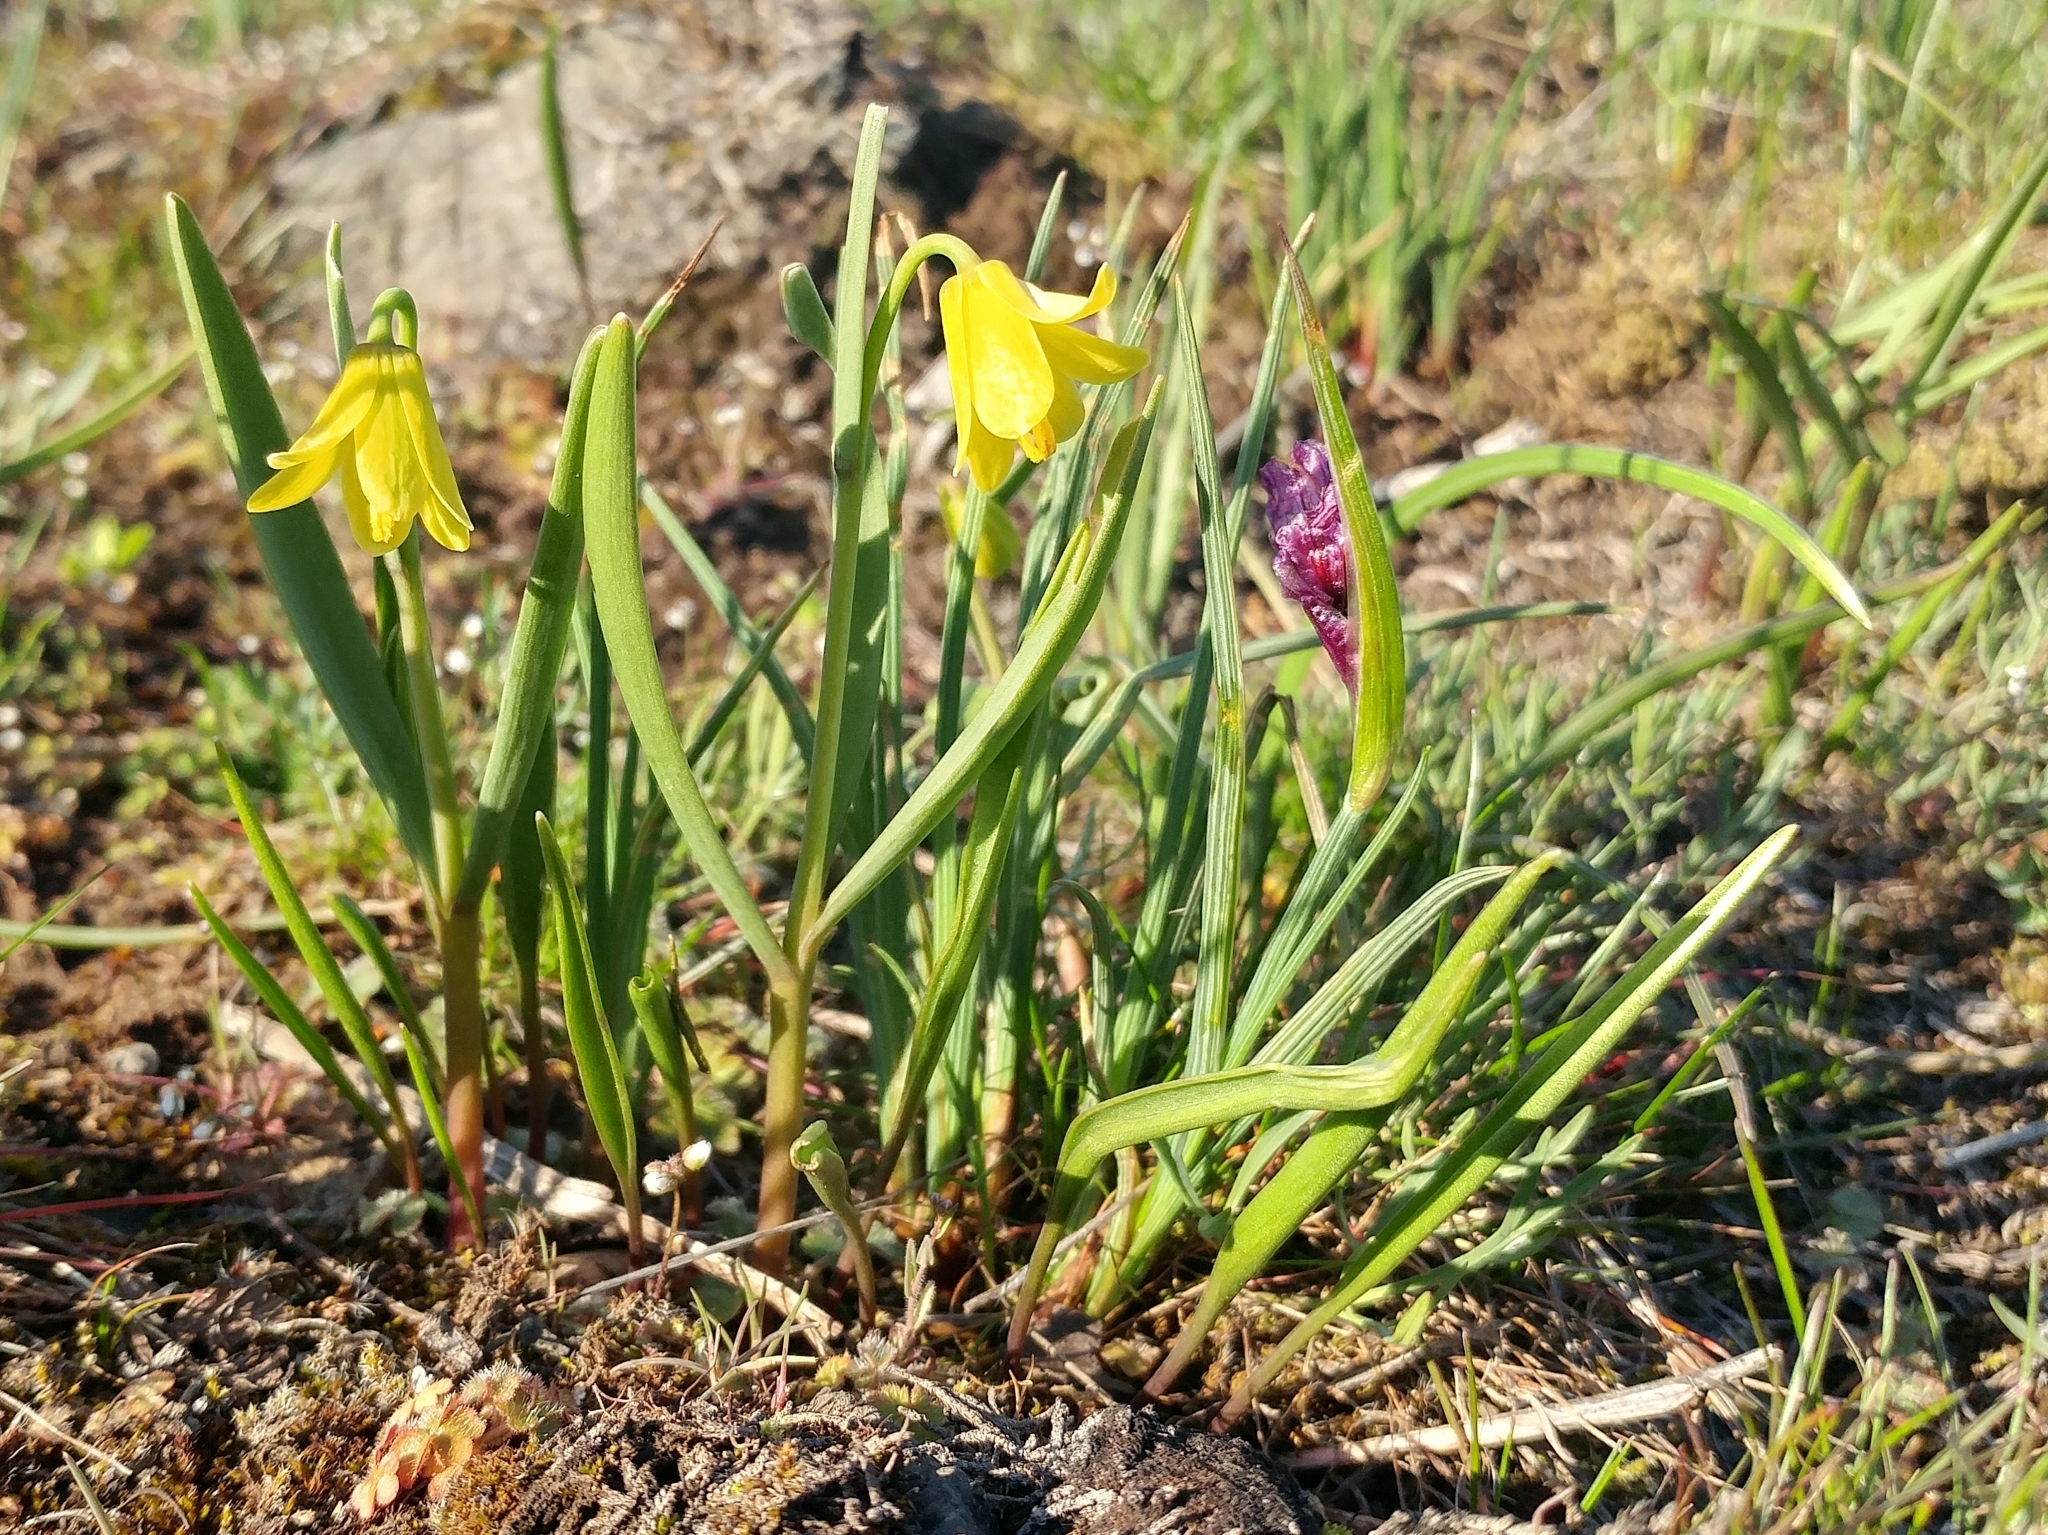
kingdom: Plantae
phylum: Tracheophyta
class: Liliopsida
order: Liliales
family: Liliaceae
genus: Fritillaria
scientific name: Fritillaria pudica
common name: Yellow fritillary
